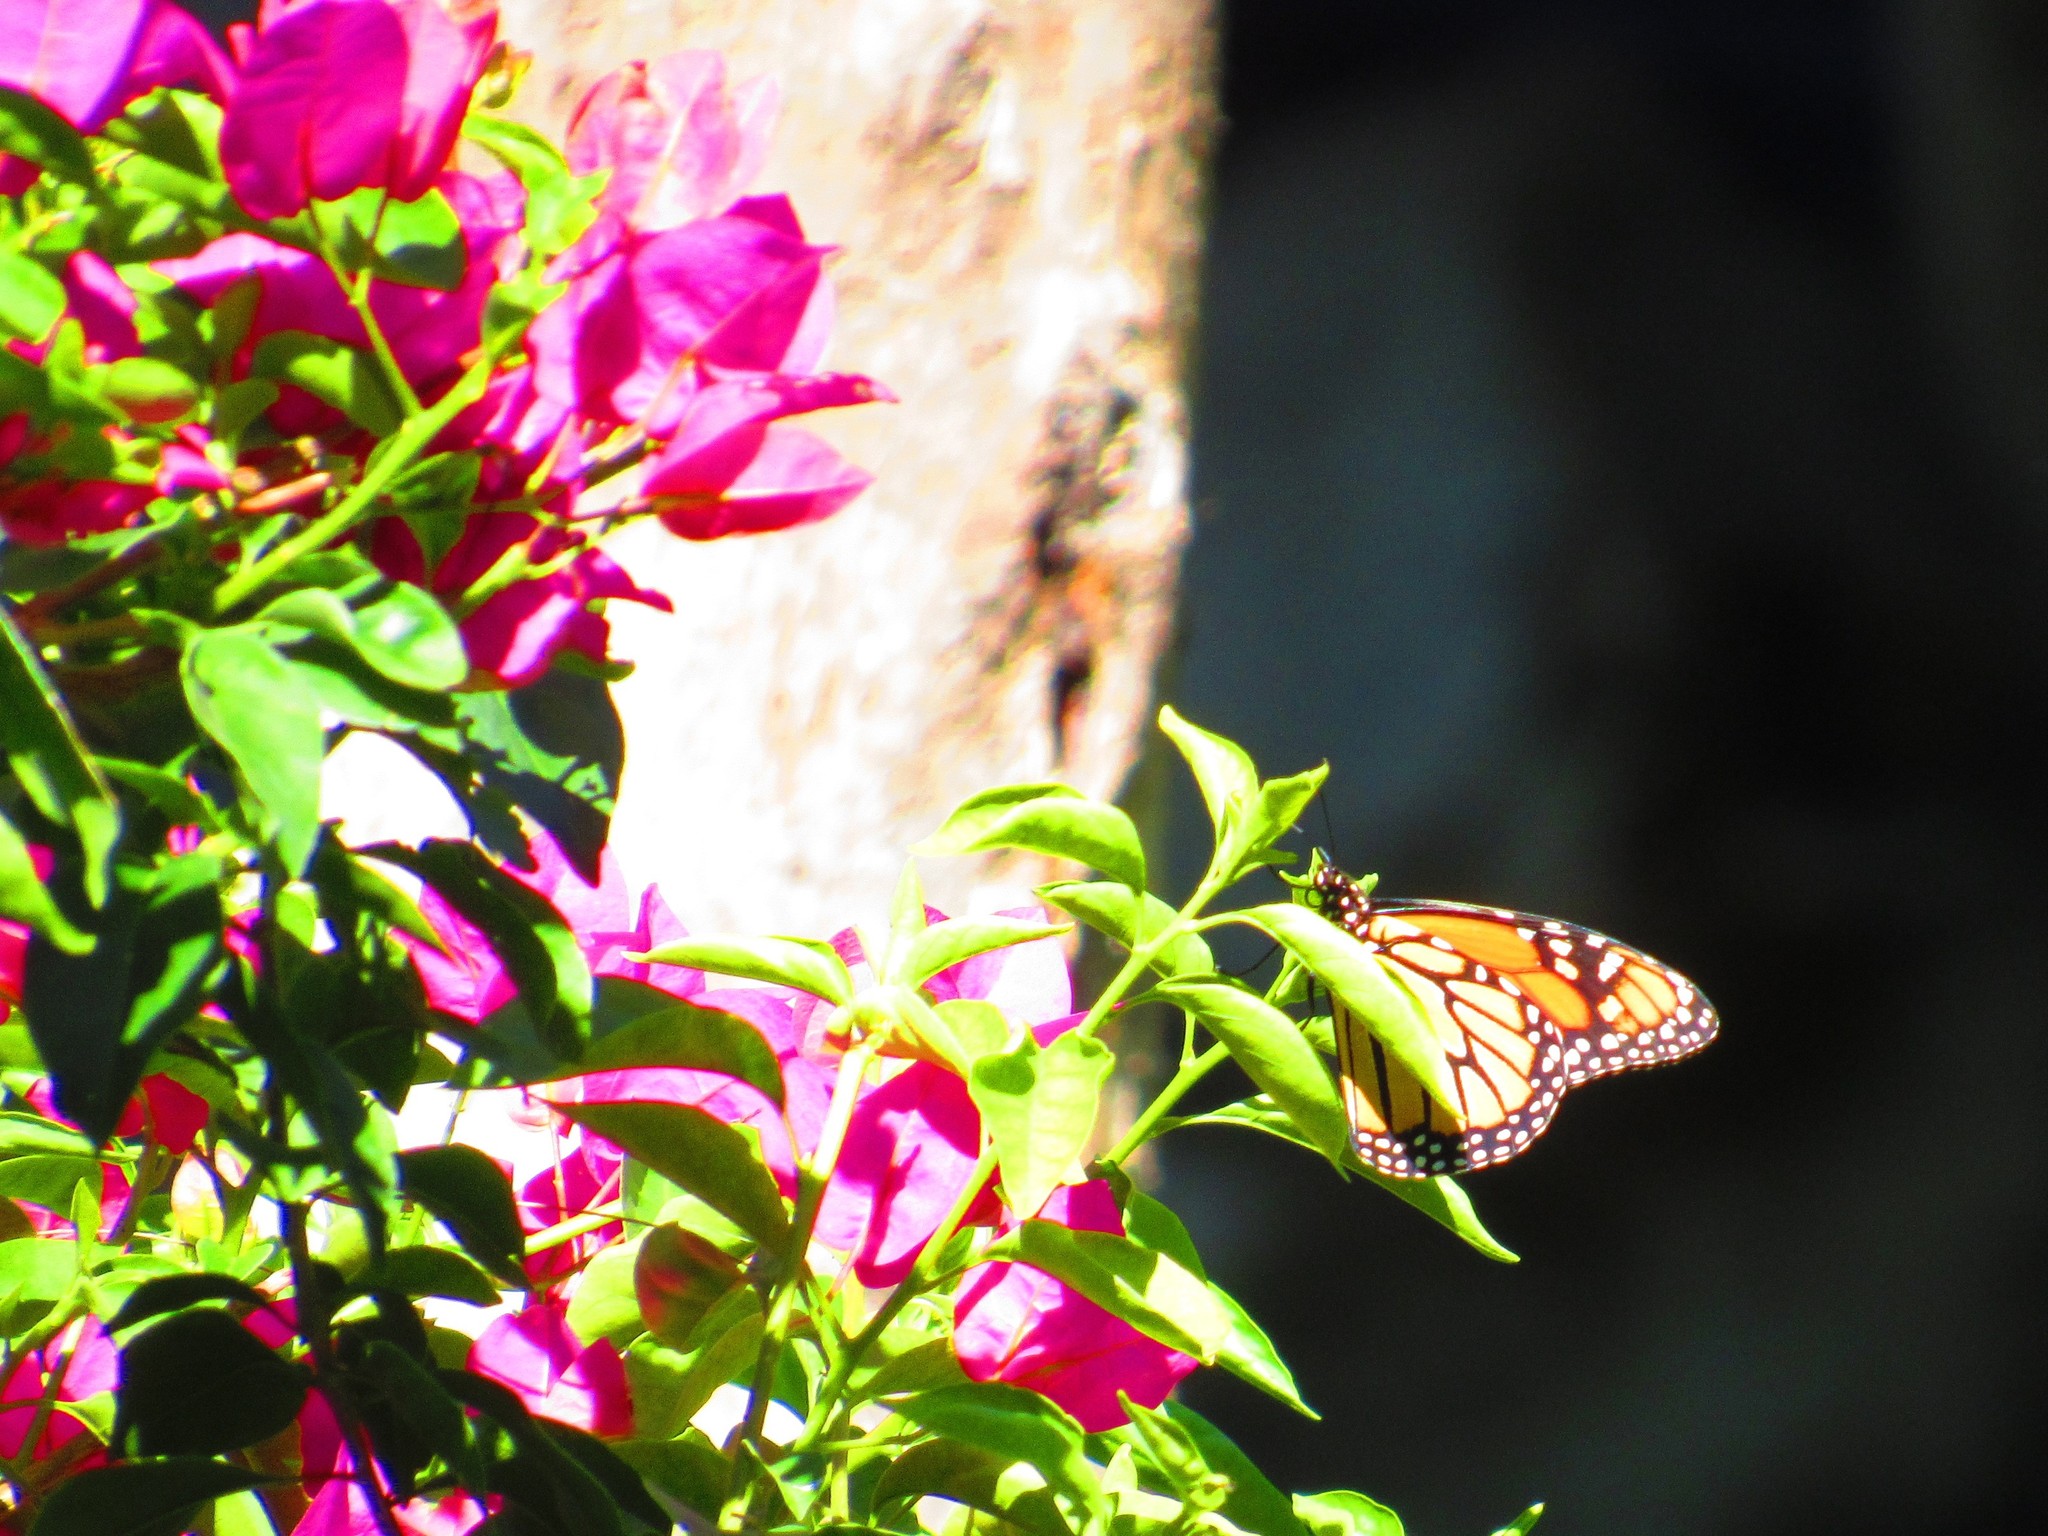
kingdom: Animalia
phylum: Arthropoda
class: Insecta
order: Lepidoptera
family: Nymphalidae
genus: Danaus
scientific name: Danaus plexippus
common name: Monarch
